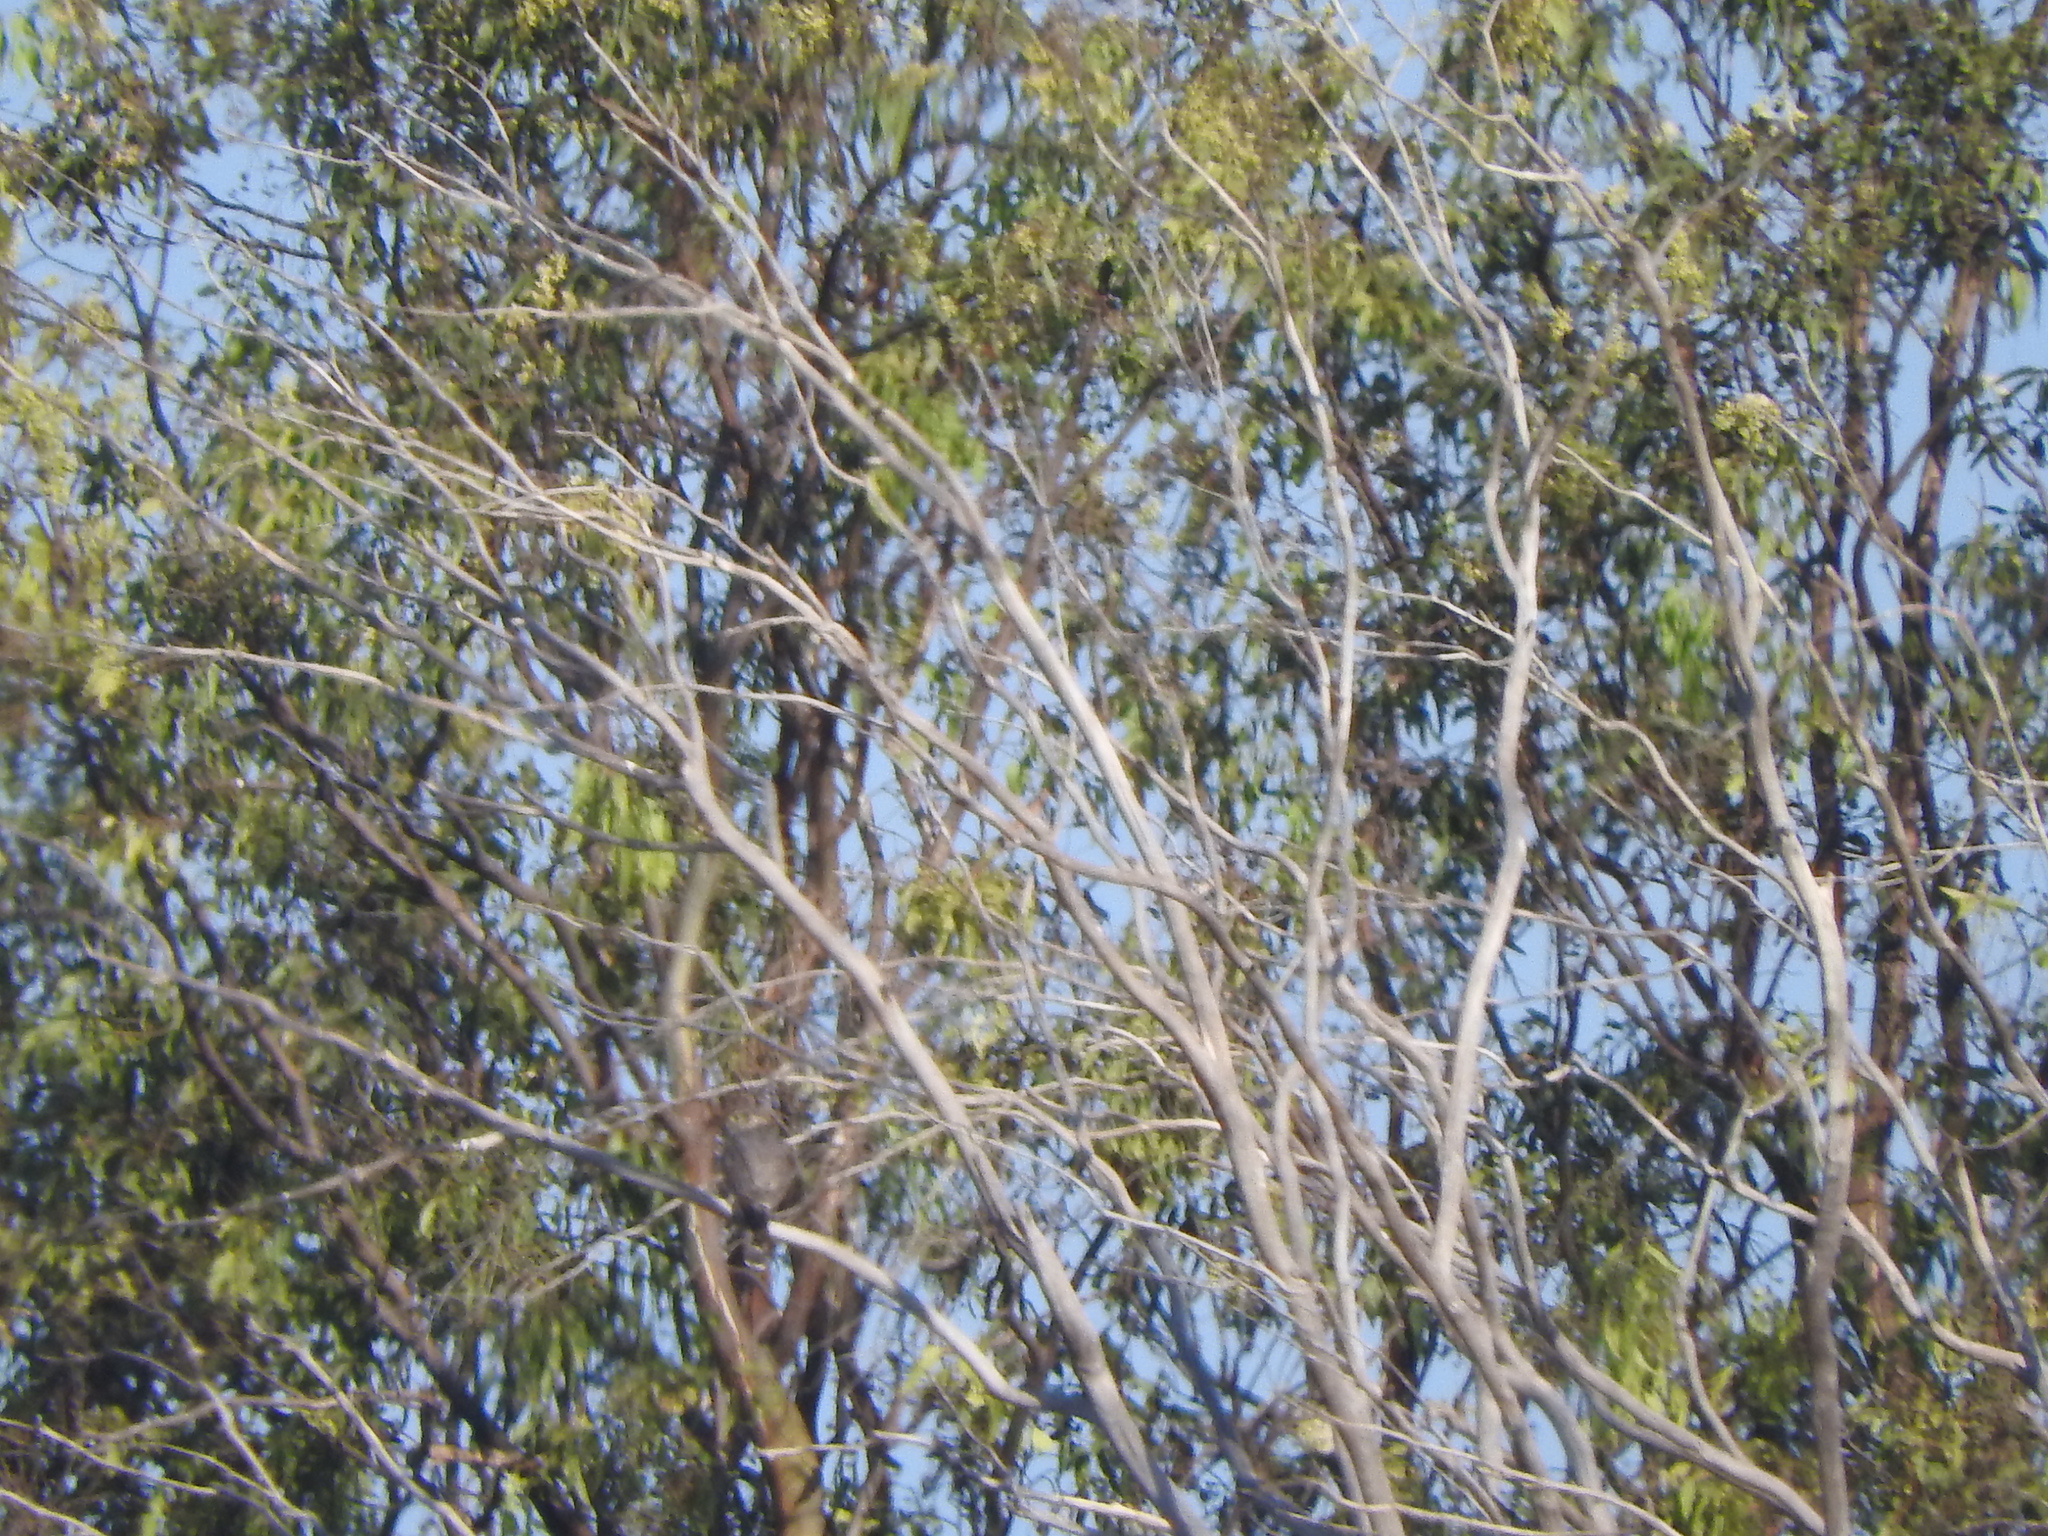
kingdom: Animalia
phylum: Chordata
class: Aves
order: Falconiformes
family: Falconidae
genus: Falco
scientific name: Falco columbarius
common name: Merlin
